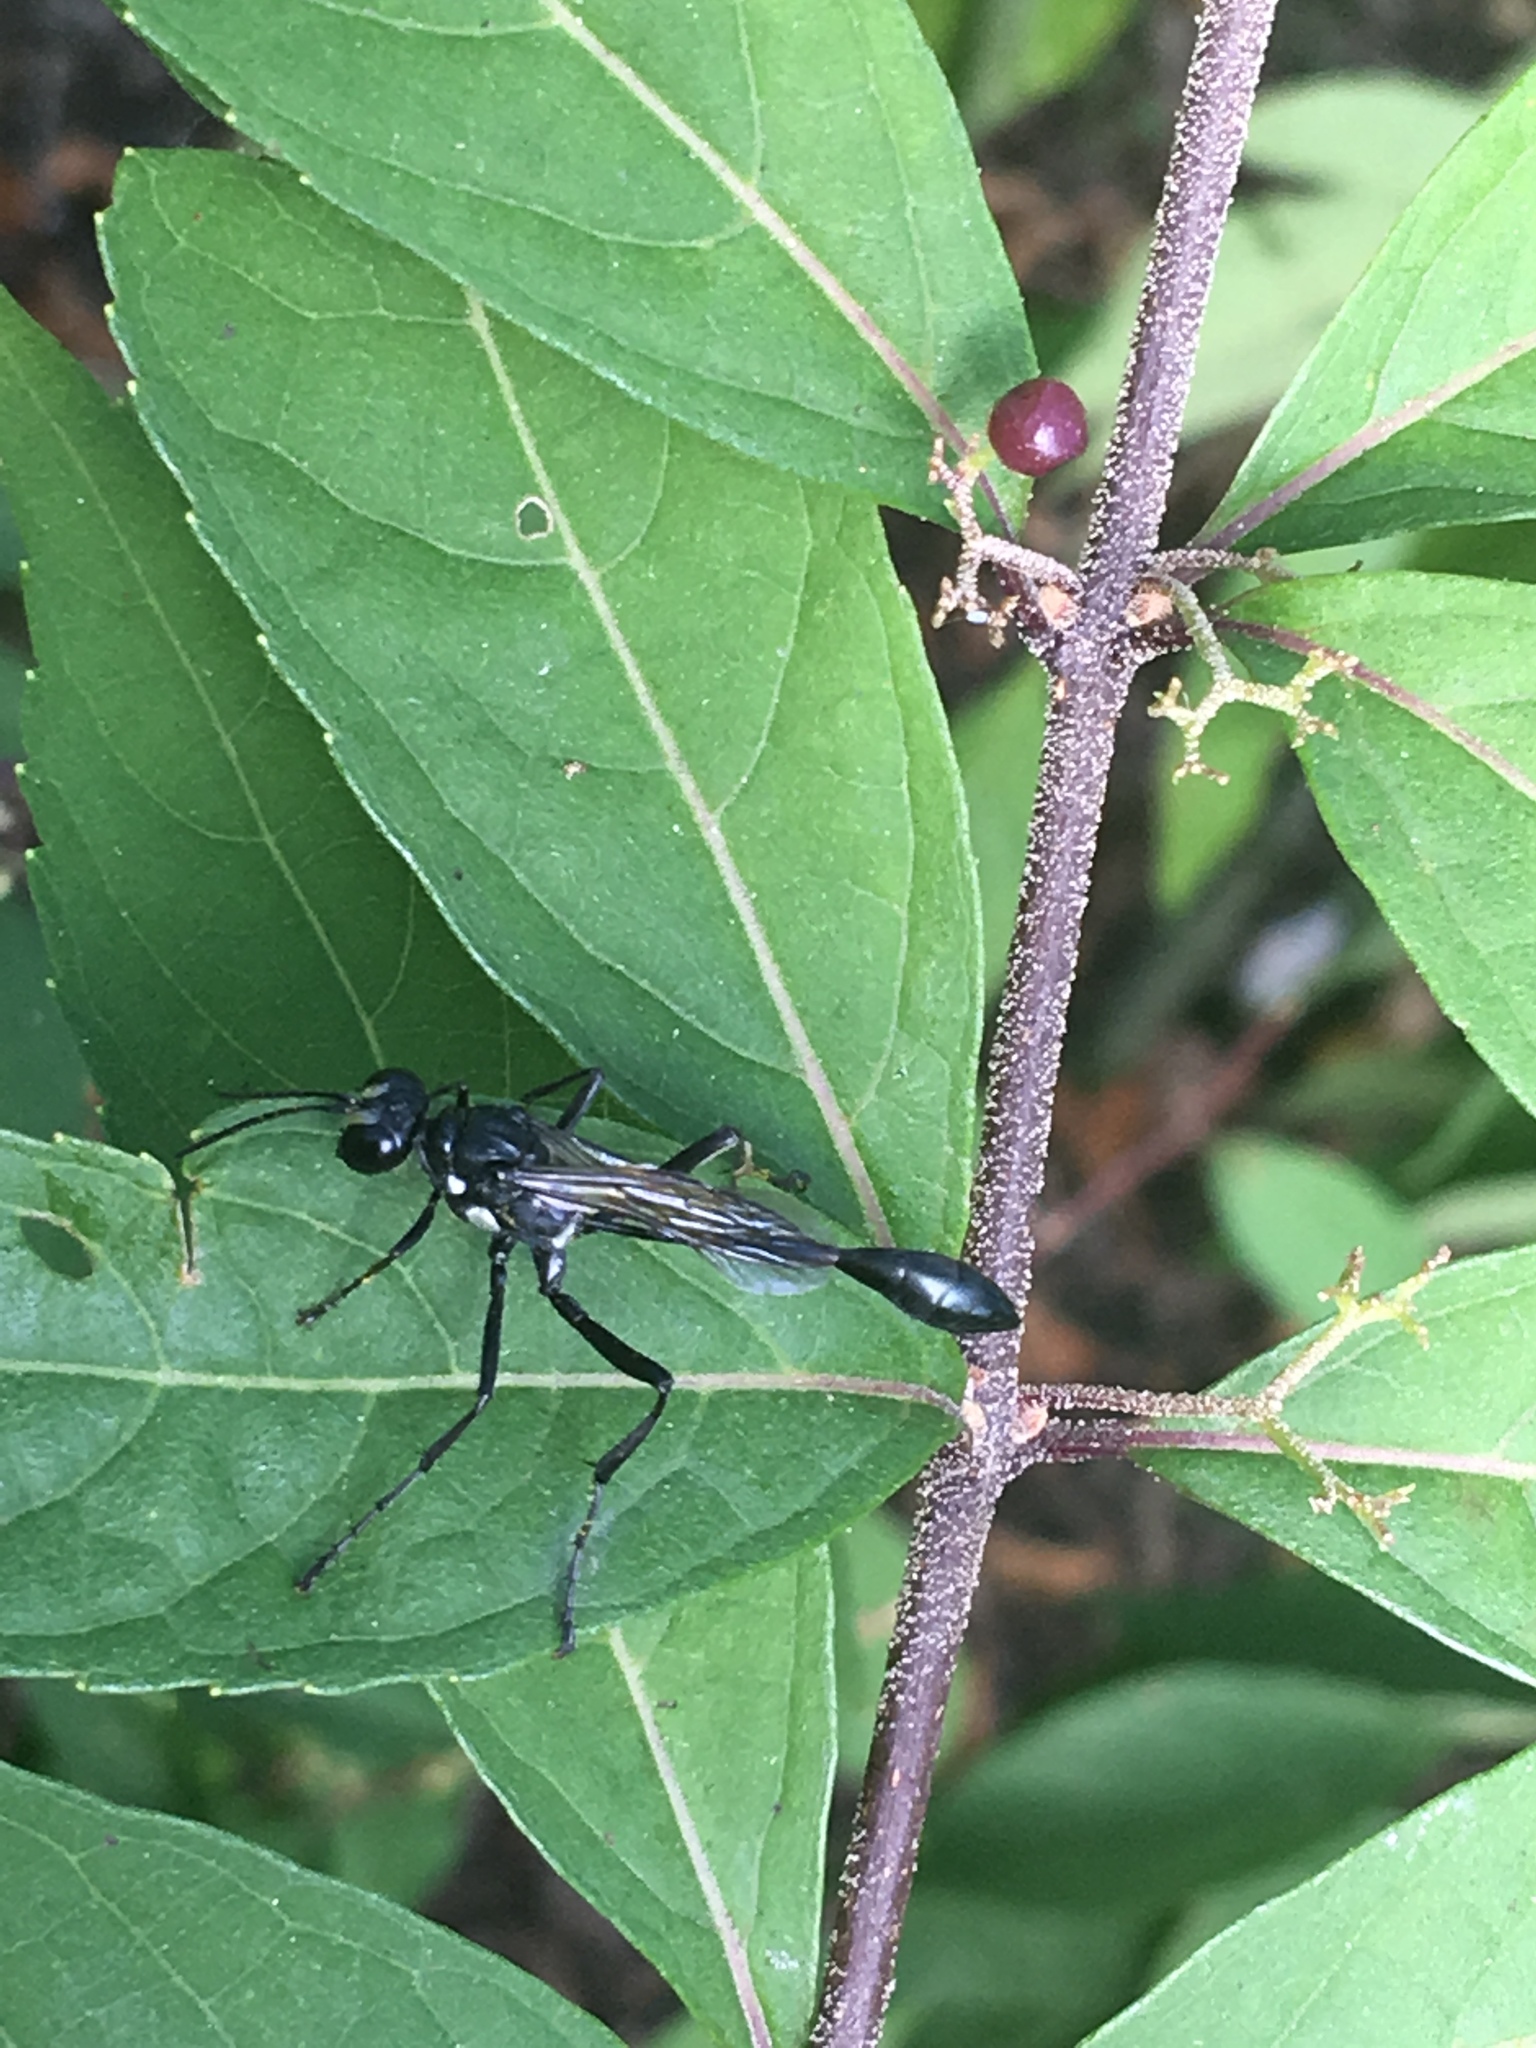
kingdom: Animalia
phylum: Arthropoda
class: Insecta
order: Hymenoptera
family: Sphecidae
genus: Eremnophila
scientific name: Eremnophila aureonotata
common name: Gold-marked thread-waisted wasp
